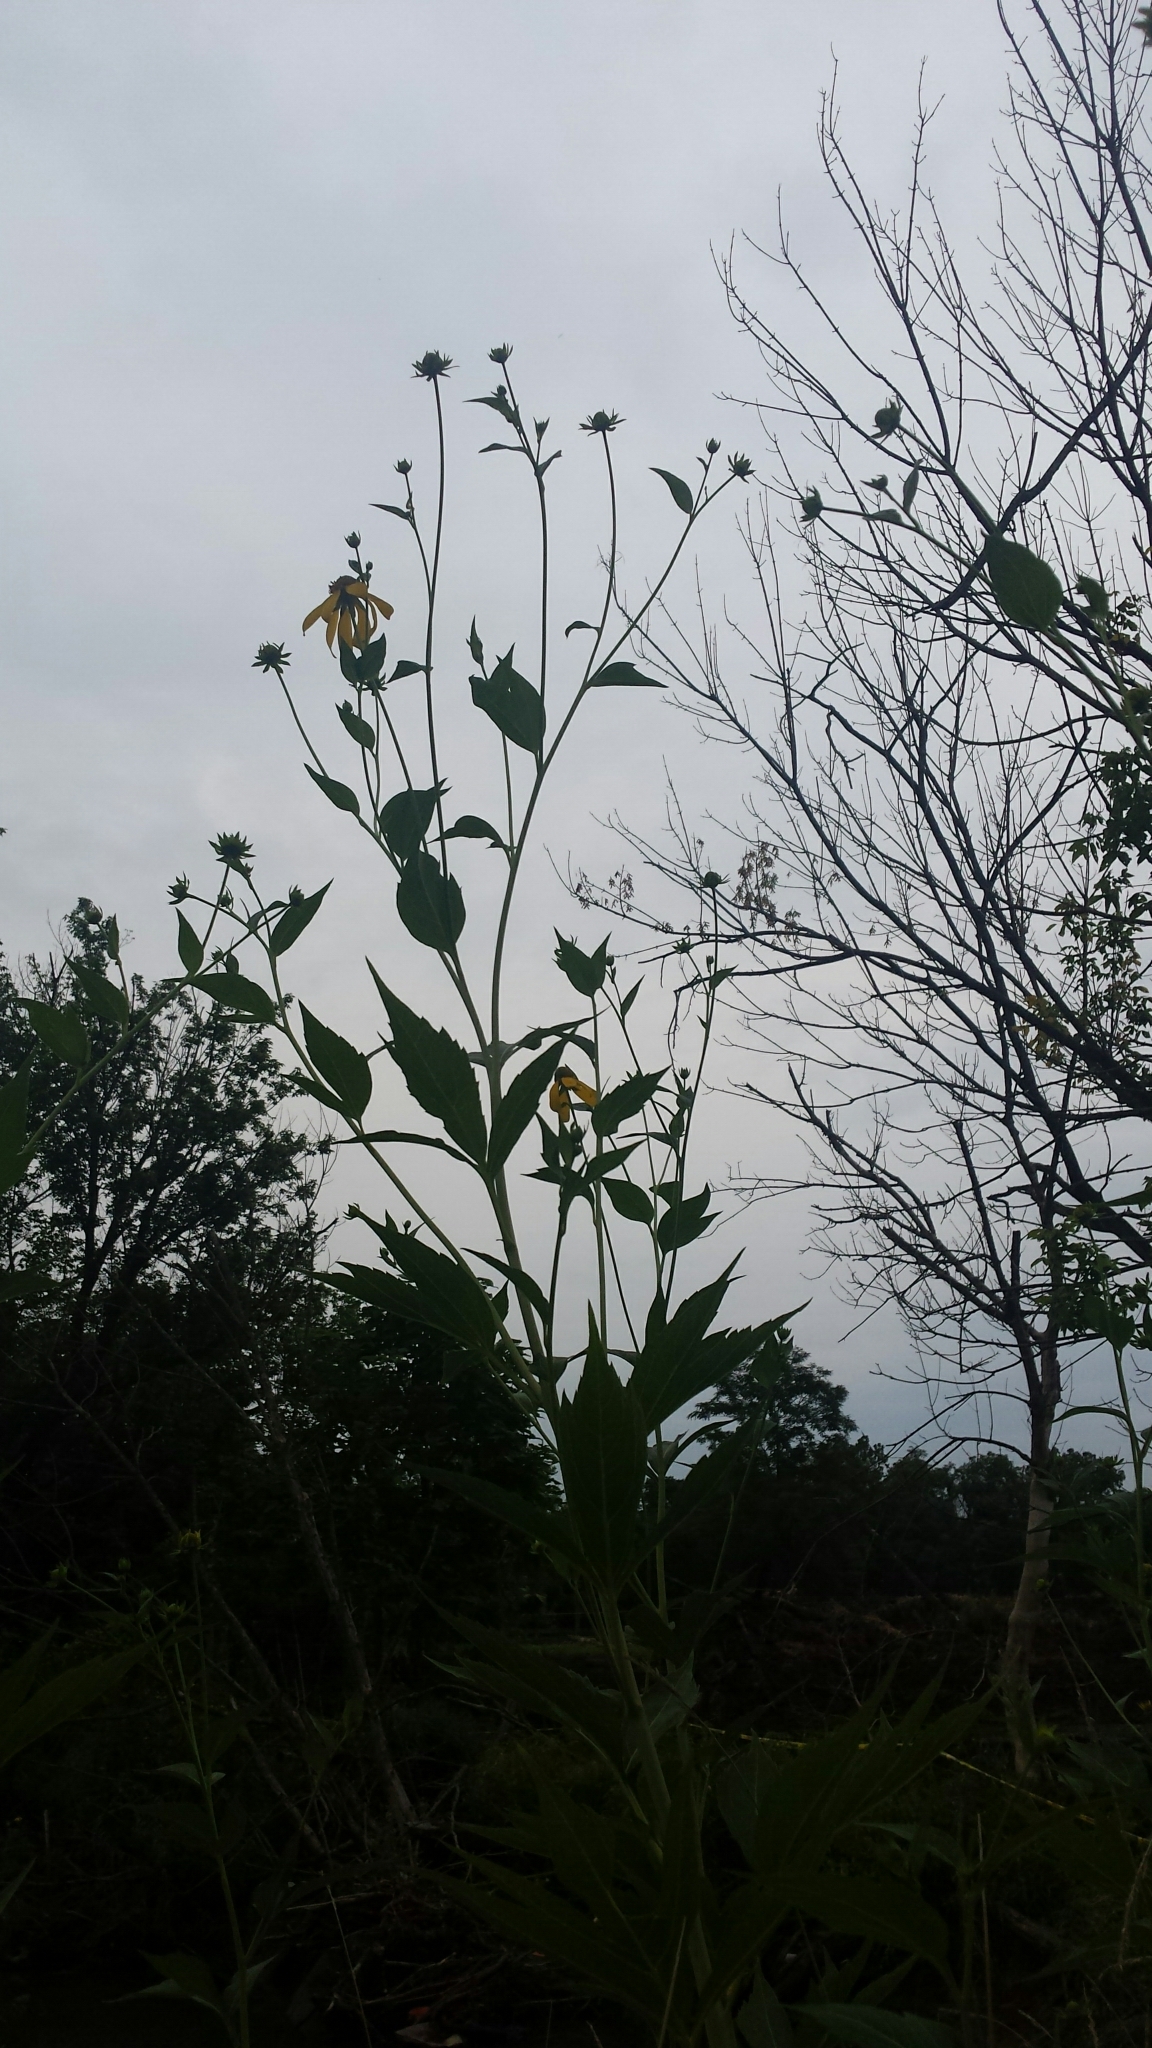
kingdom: Plantae
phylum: Tracheophyta
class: Magnoliopsida
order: Asterales
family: Asteraceae
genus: Rudbeckia
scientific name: Rudbeckia laciniata
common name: Coneflower
